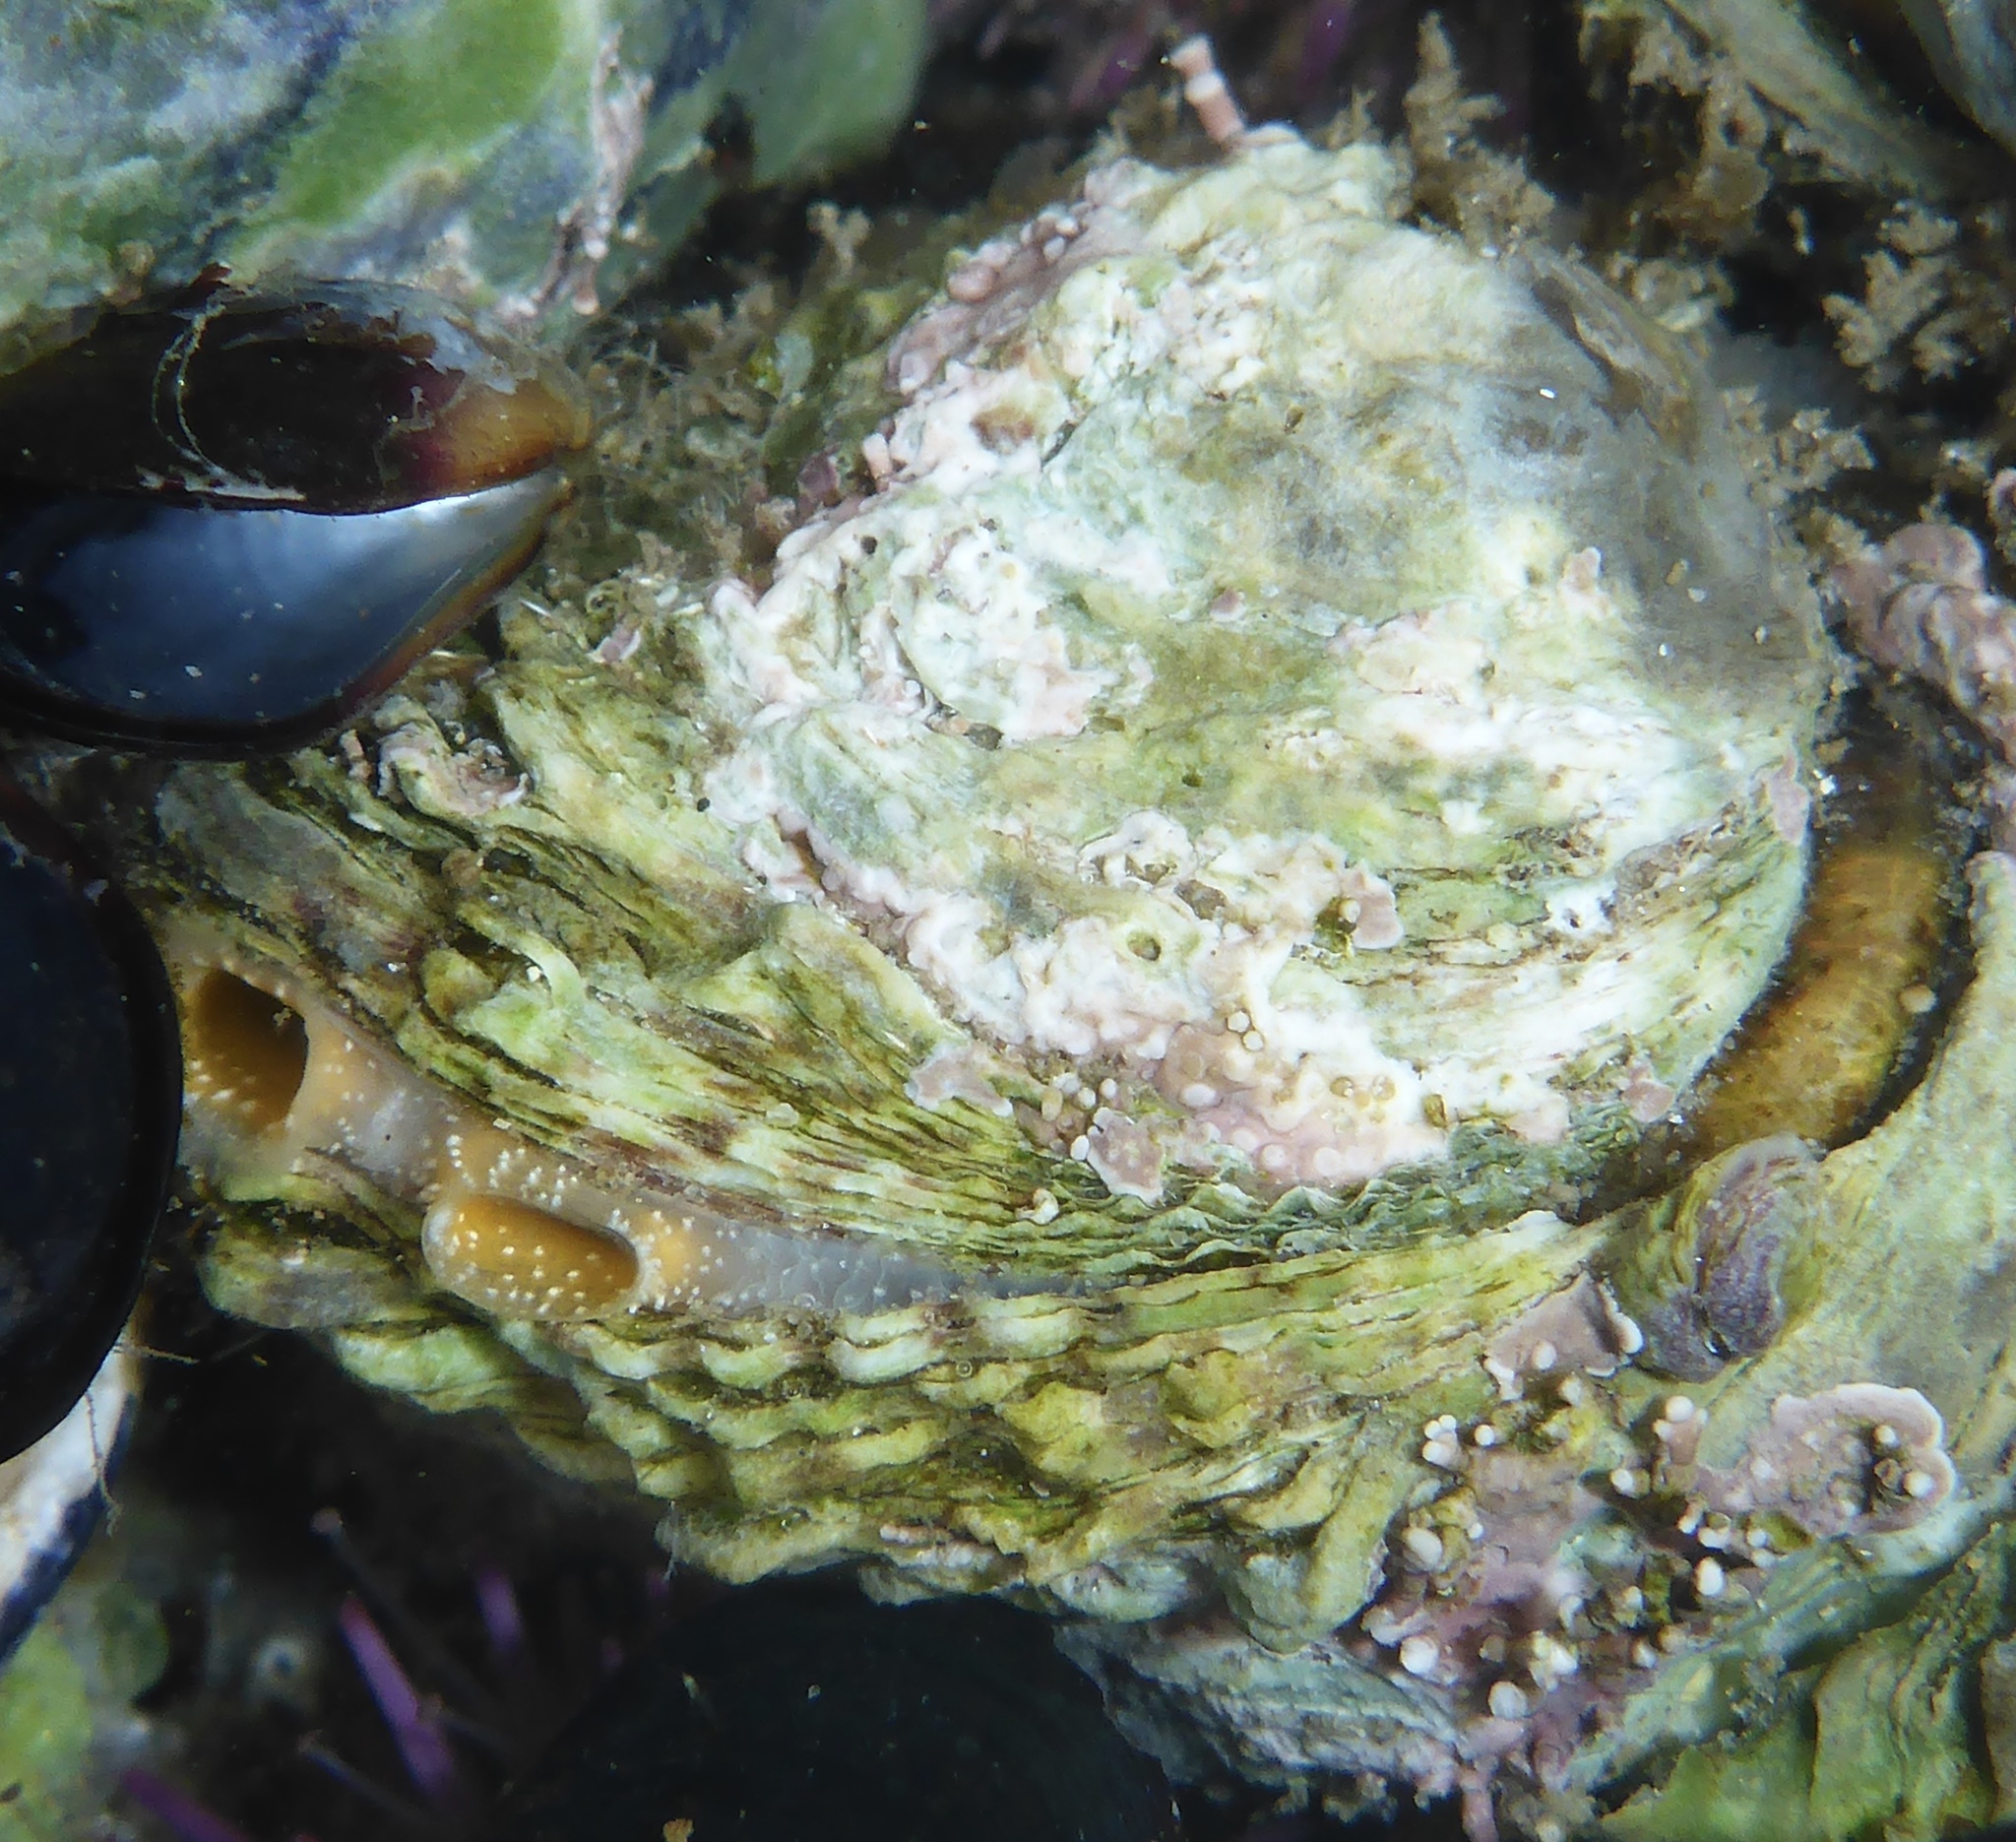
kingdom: Animalia
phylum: Mollusca
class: Bivalvia
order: Venerida
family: Chamidae
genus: Pseudochama
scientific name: Pseudochama exogyra
